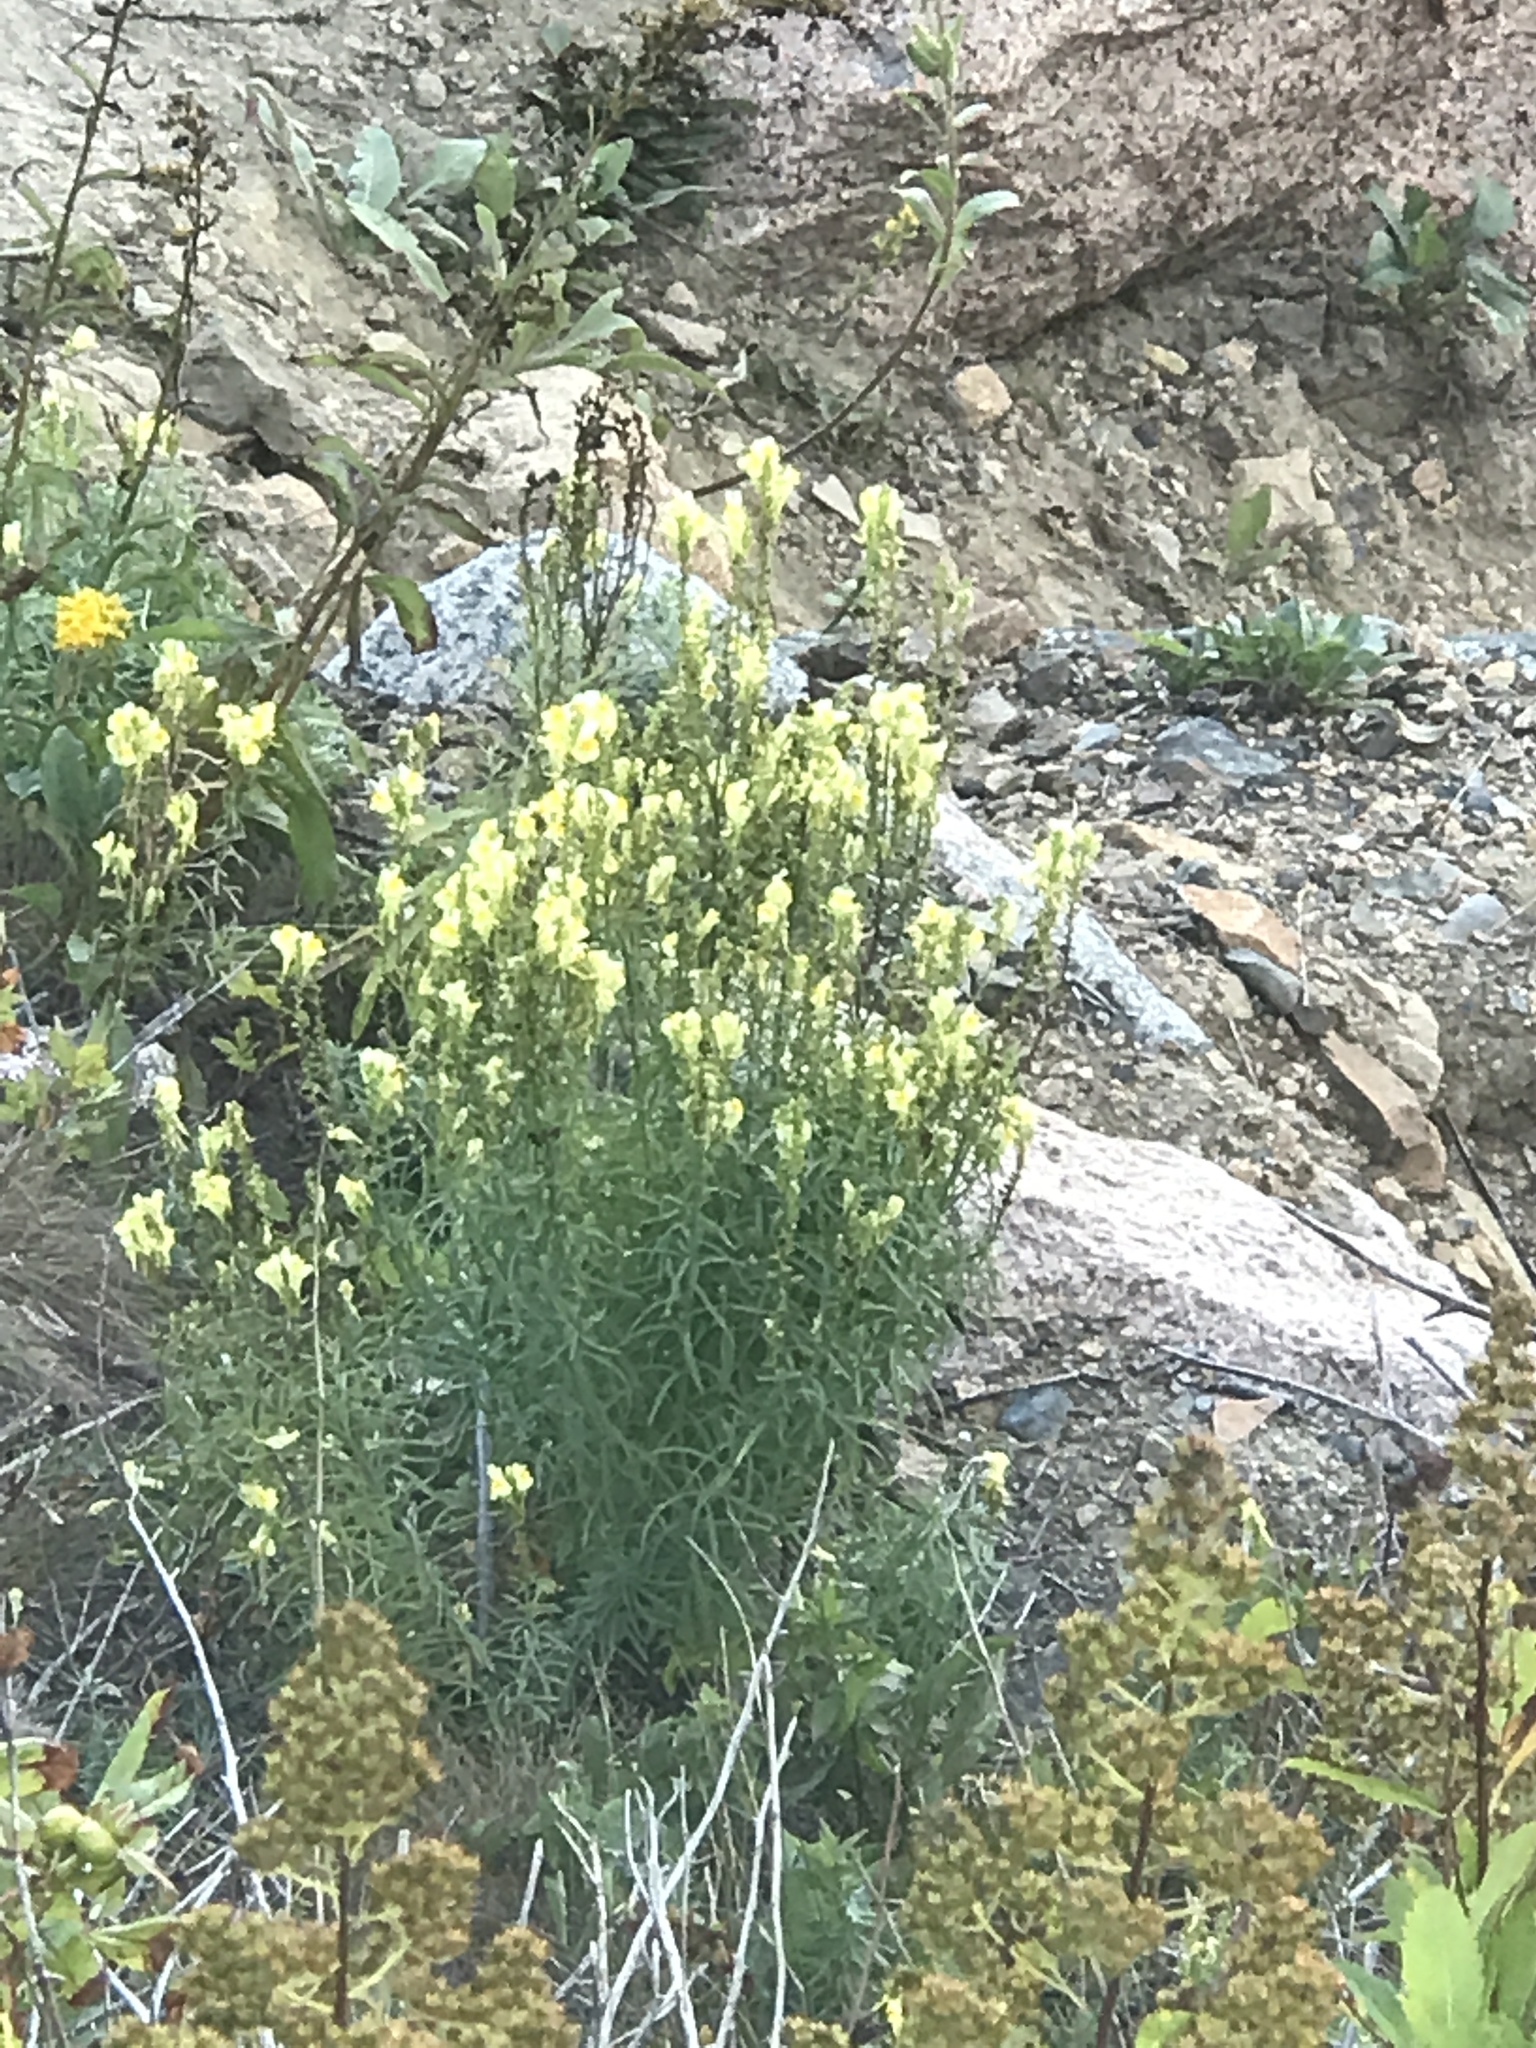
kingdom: Plantae
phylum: Tracheophyta
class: Magnoliopsida
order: Lamiales
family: Plantaginaceae
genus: Linaria
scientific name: Linaria vulgaris
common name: Butter and eggs
